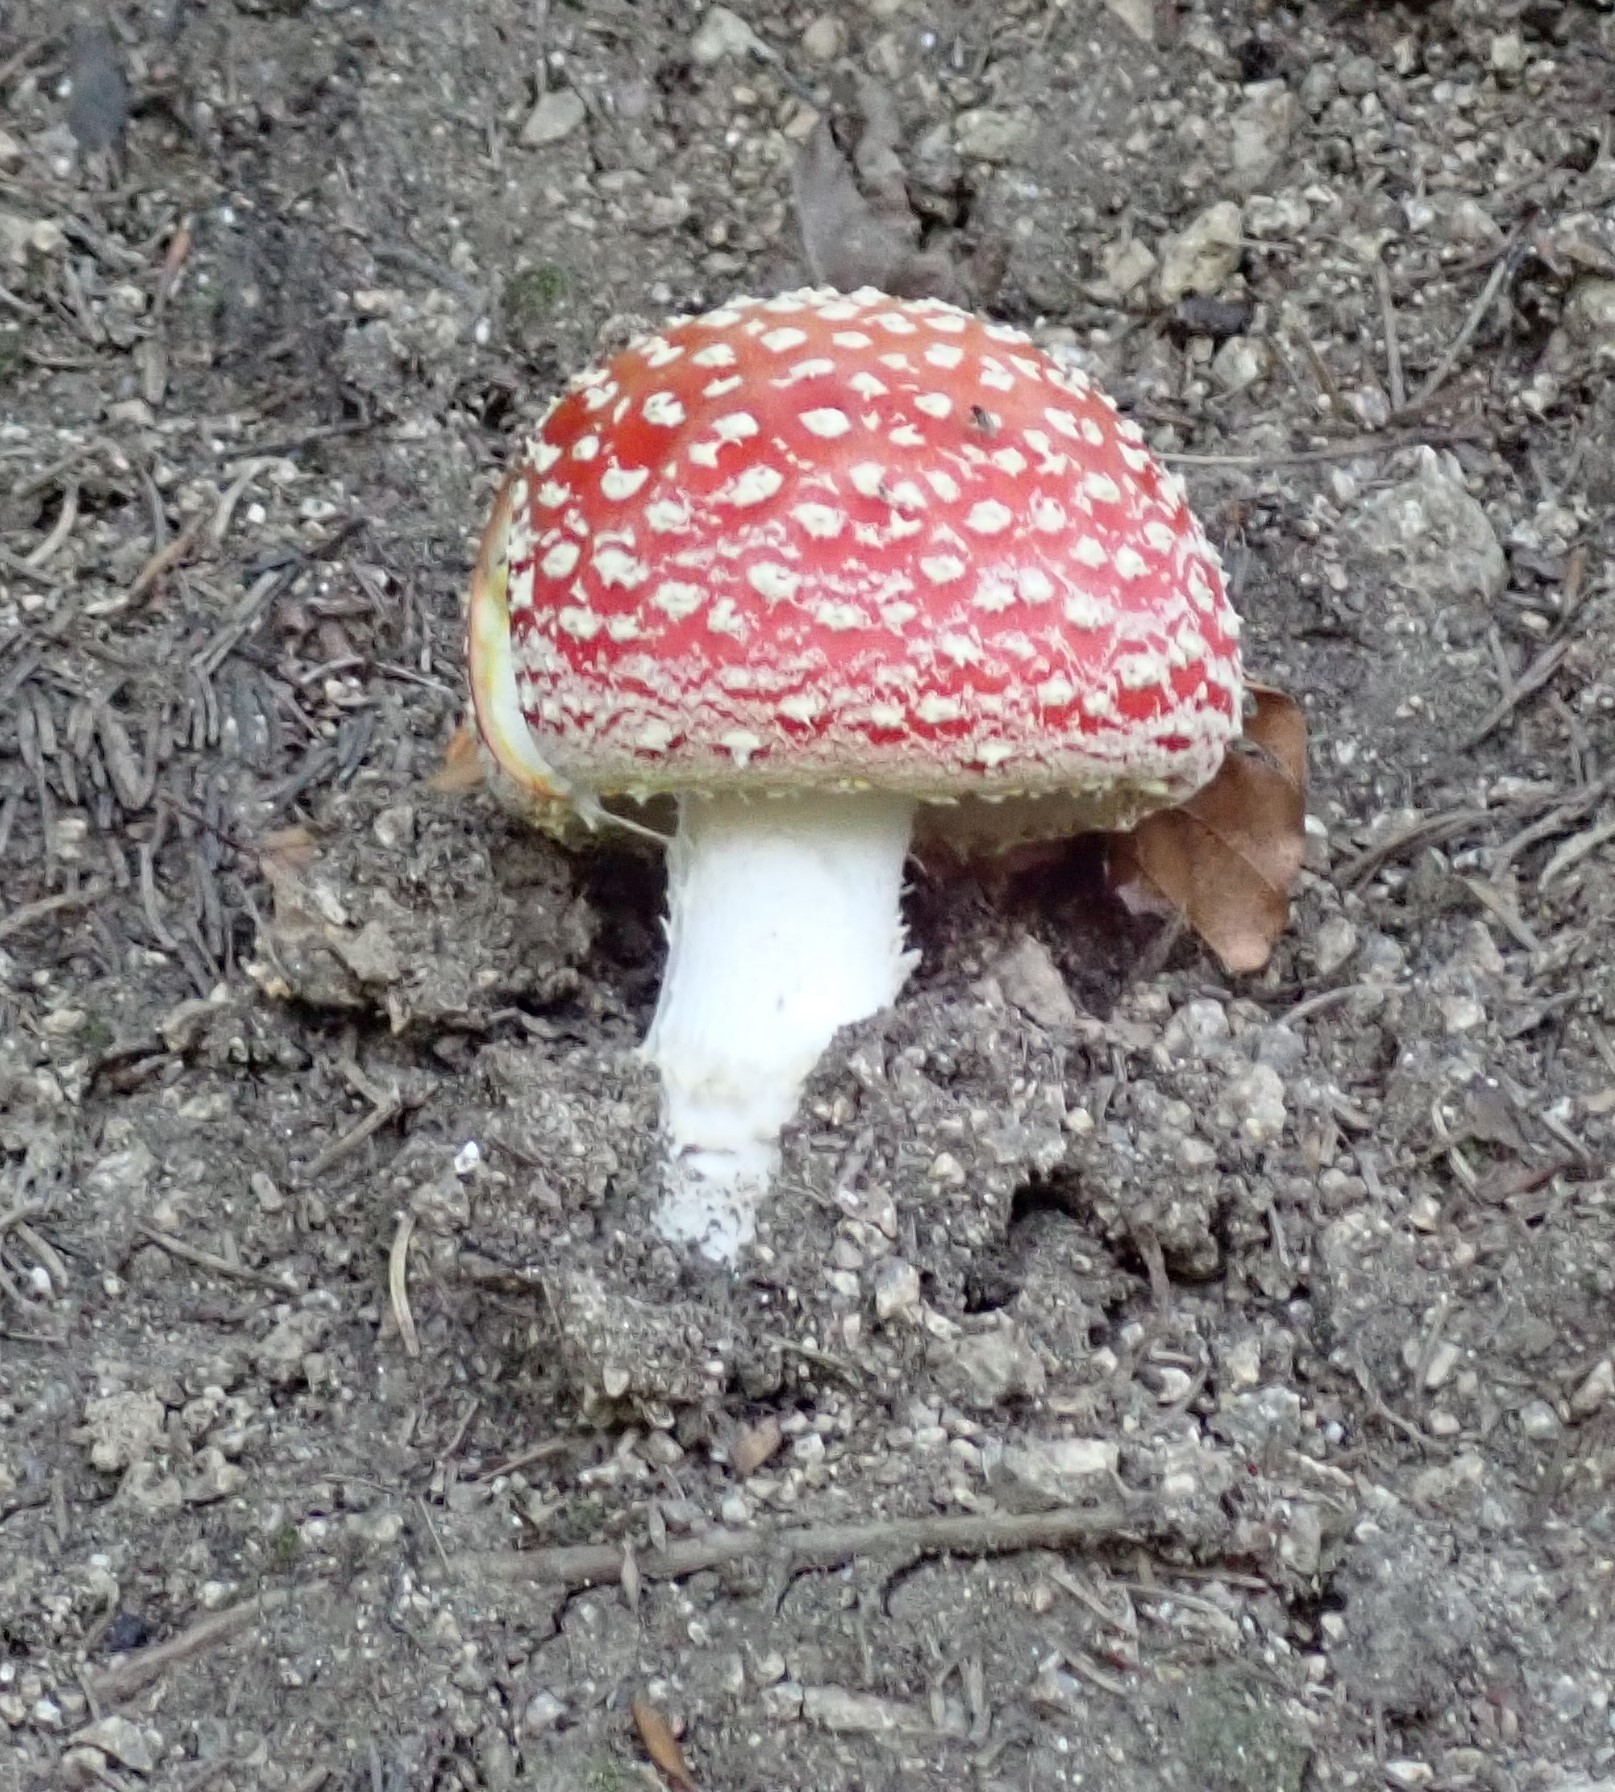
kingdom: Fungi
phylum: Basidiomycota
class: Agaricomycetes
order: Agaricales
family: Amanitaceae
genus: Amanita
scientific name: Amanita muscaria
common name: Fly agaric
